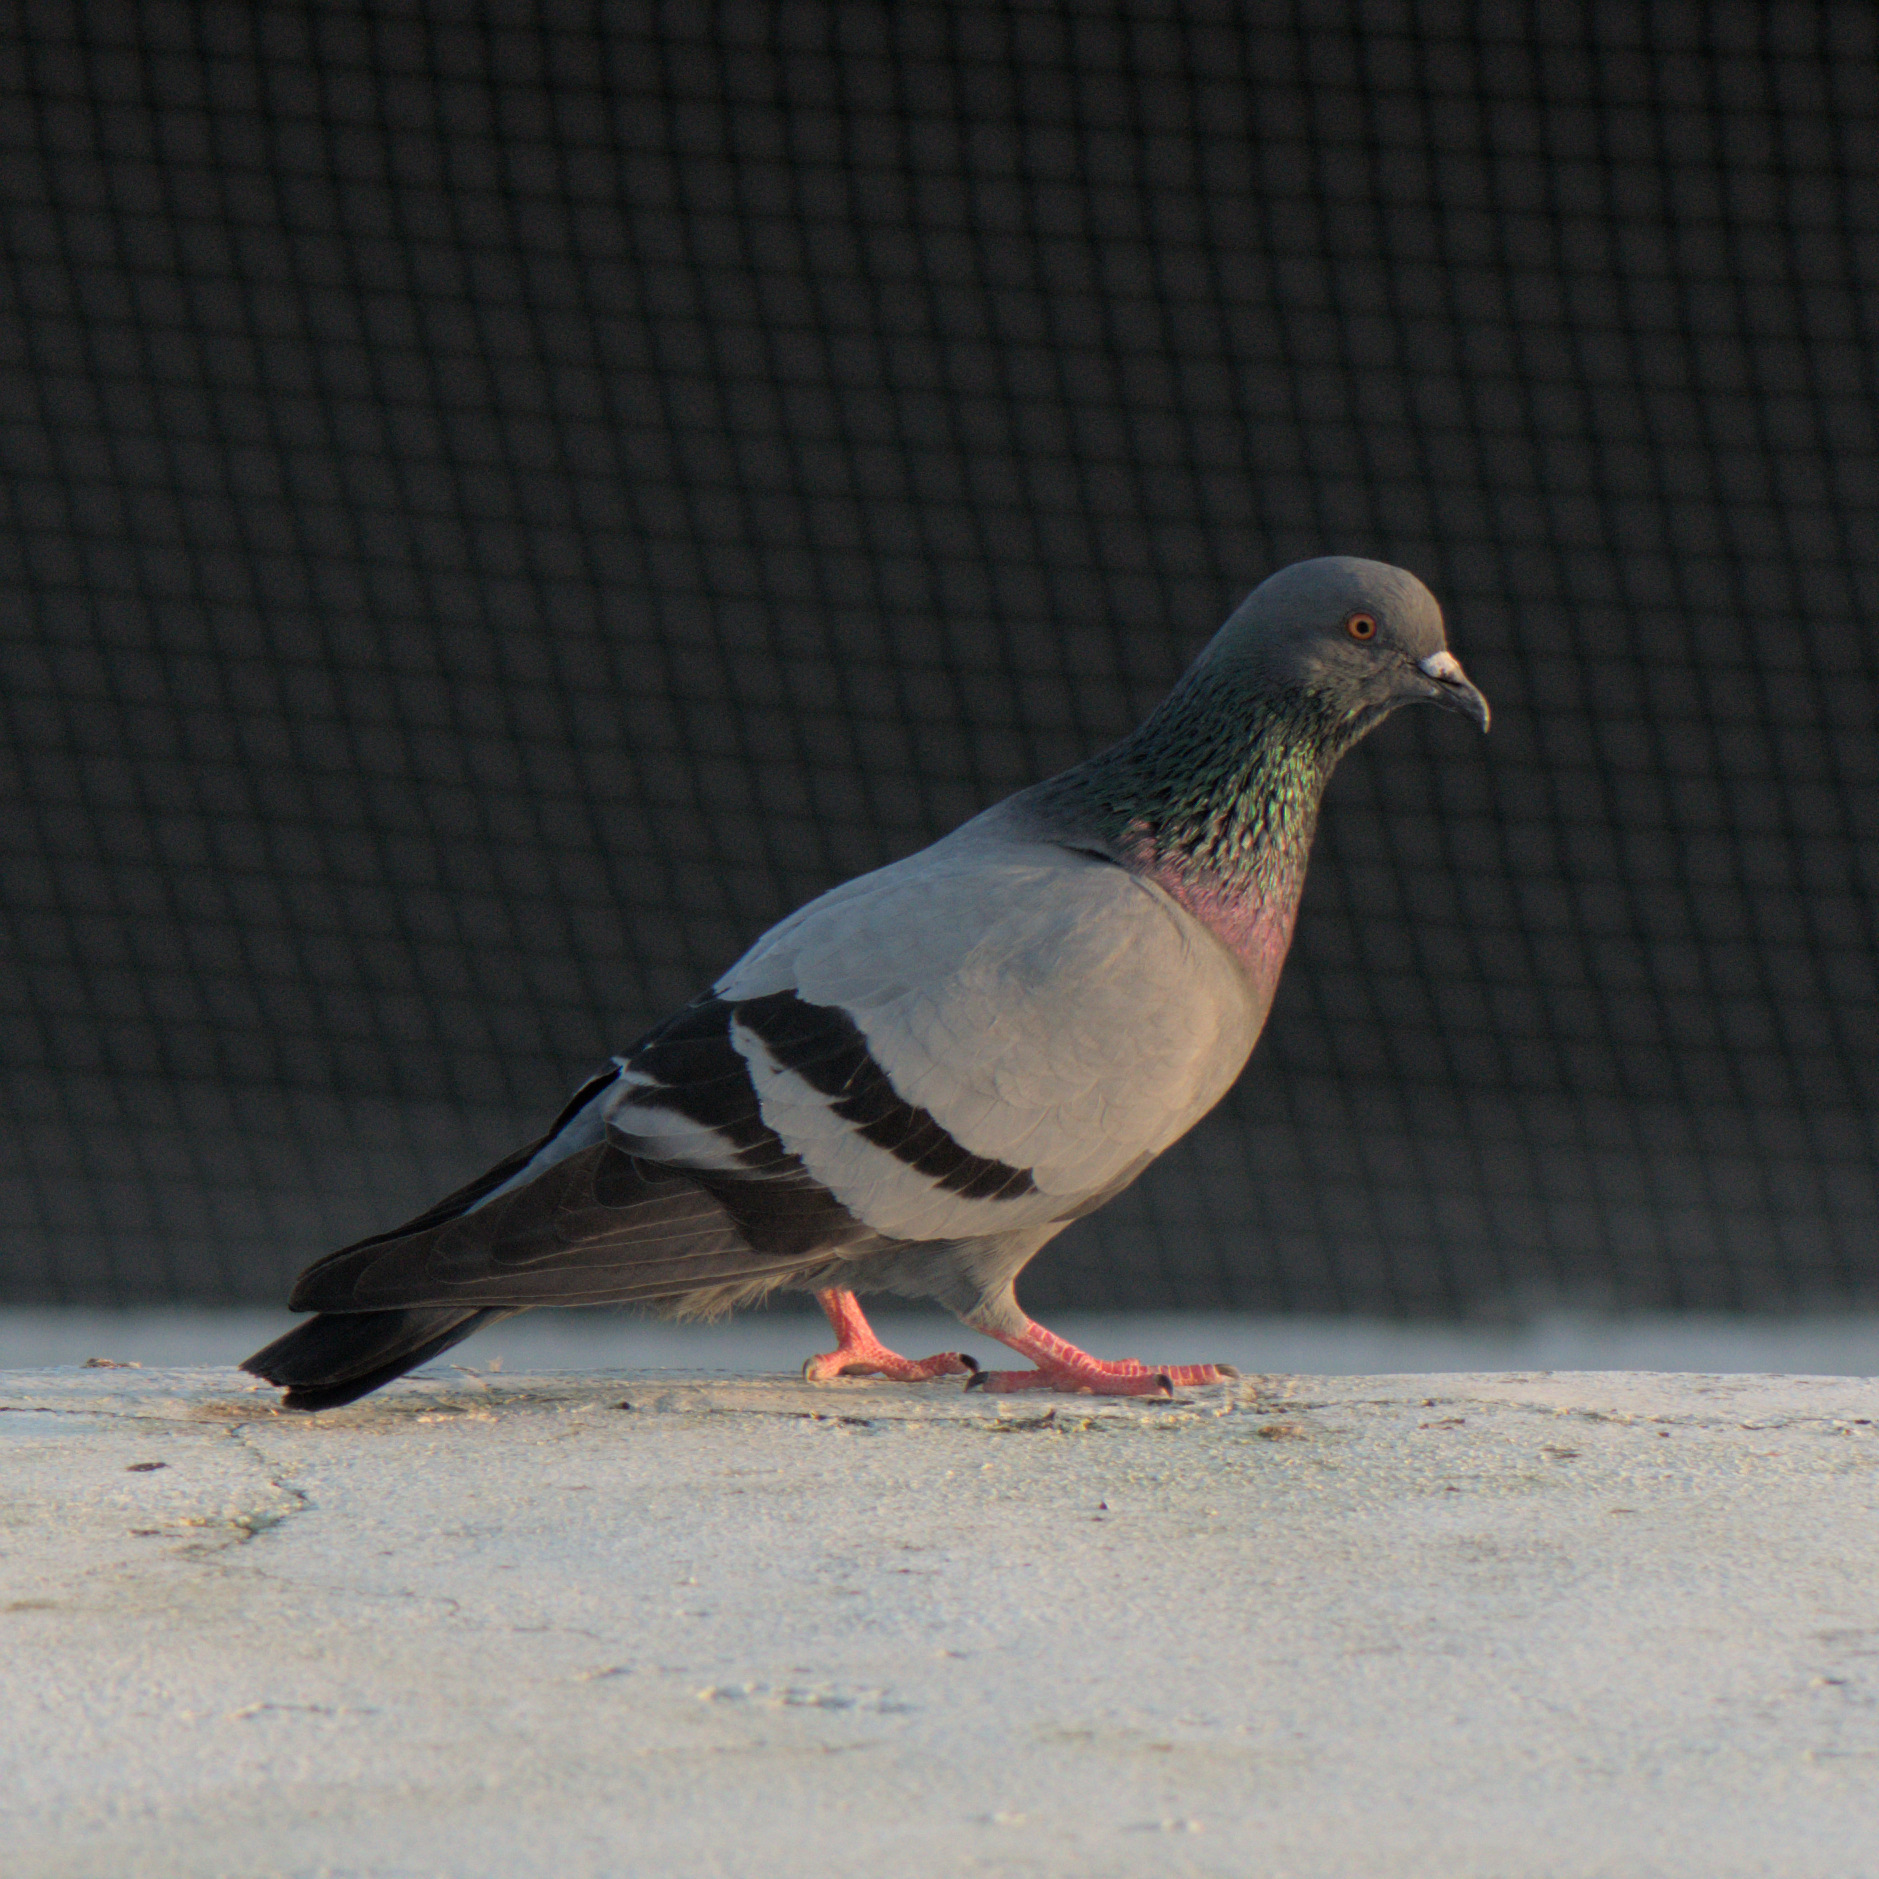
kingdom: Animalia
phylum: Chordata
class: Aves
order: Columbiformes
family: Columbidae
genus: Columba
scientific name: Columba livia
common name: Rock pigeon
